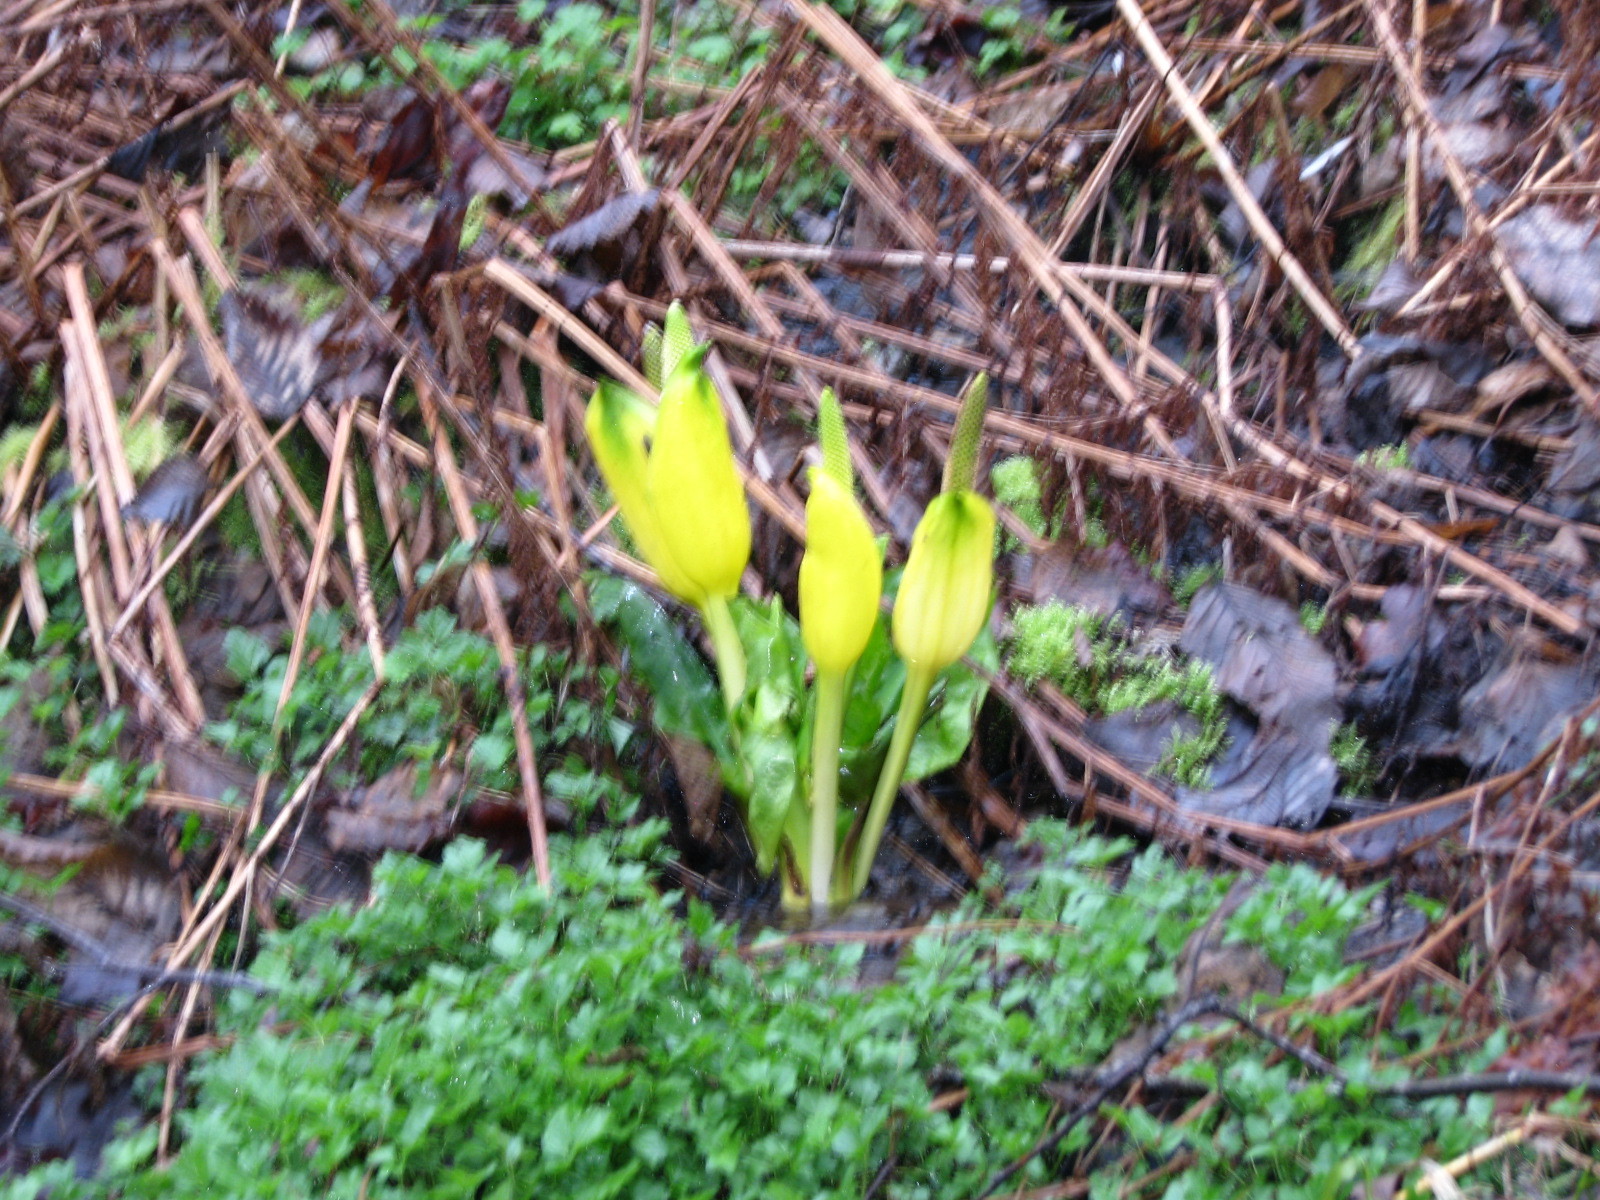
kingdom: Plantae
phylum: Tracheophyta
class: Liliopsida
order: Alismatales
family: Araceae
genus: Lysichiton
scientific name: Lysichiton americanus
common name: American skunk cabbage
